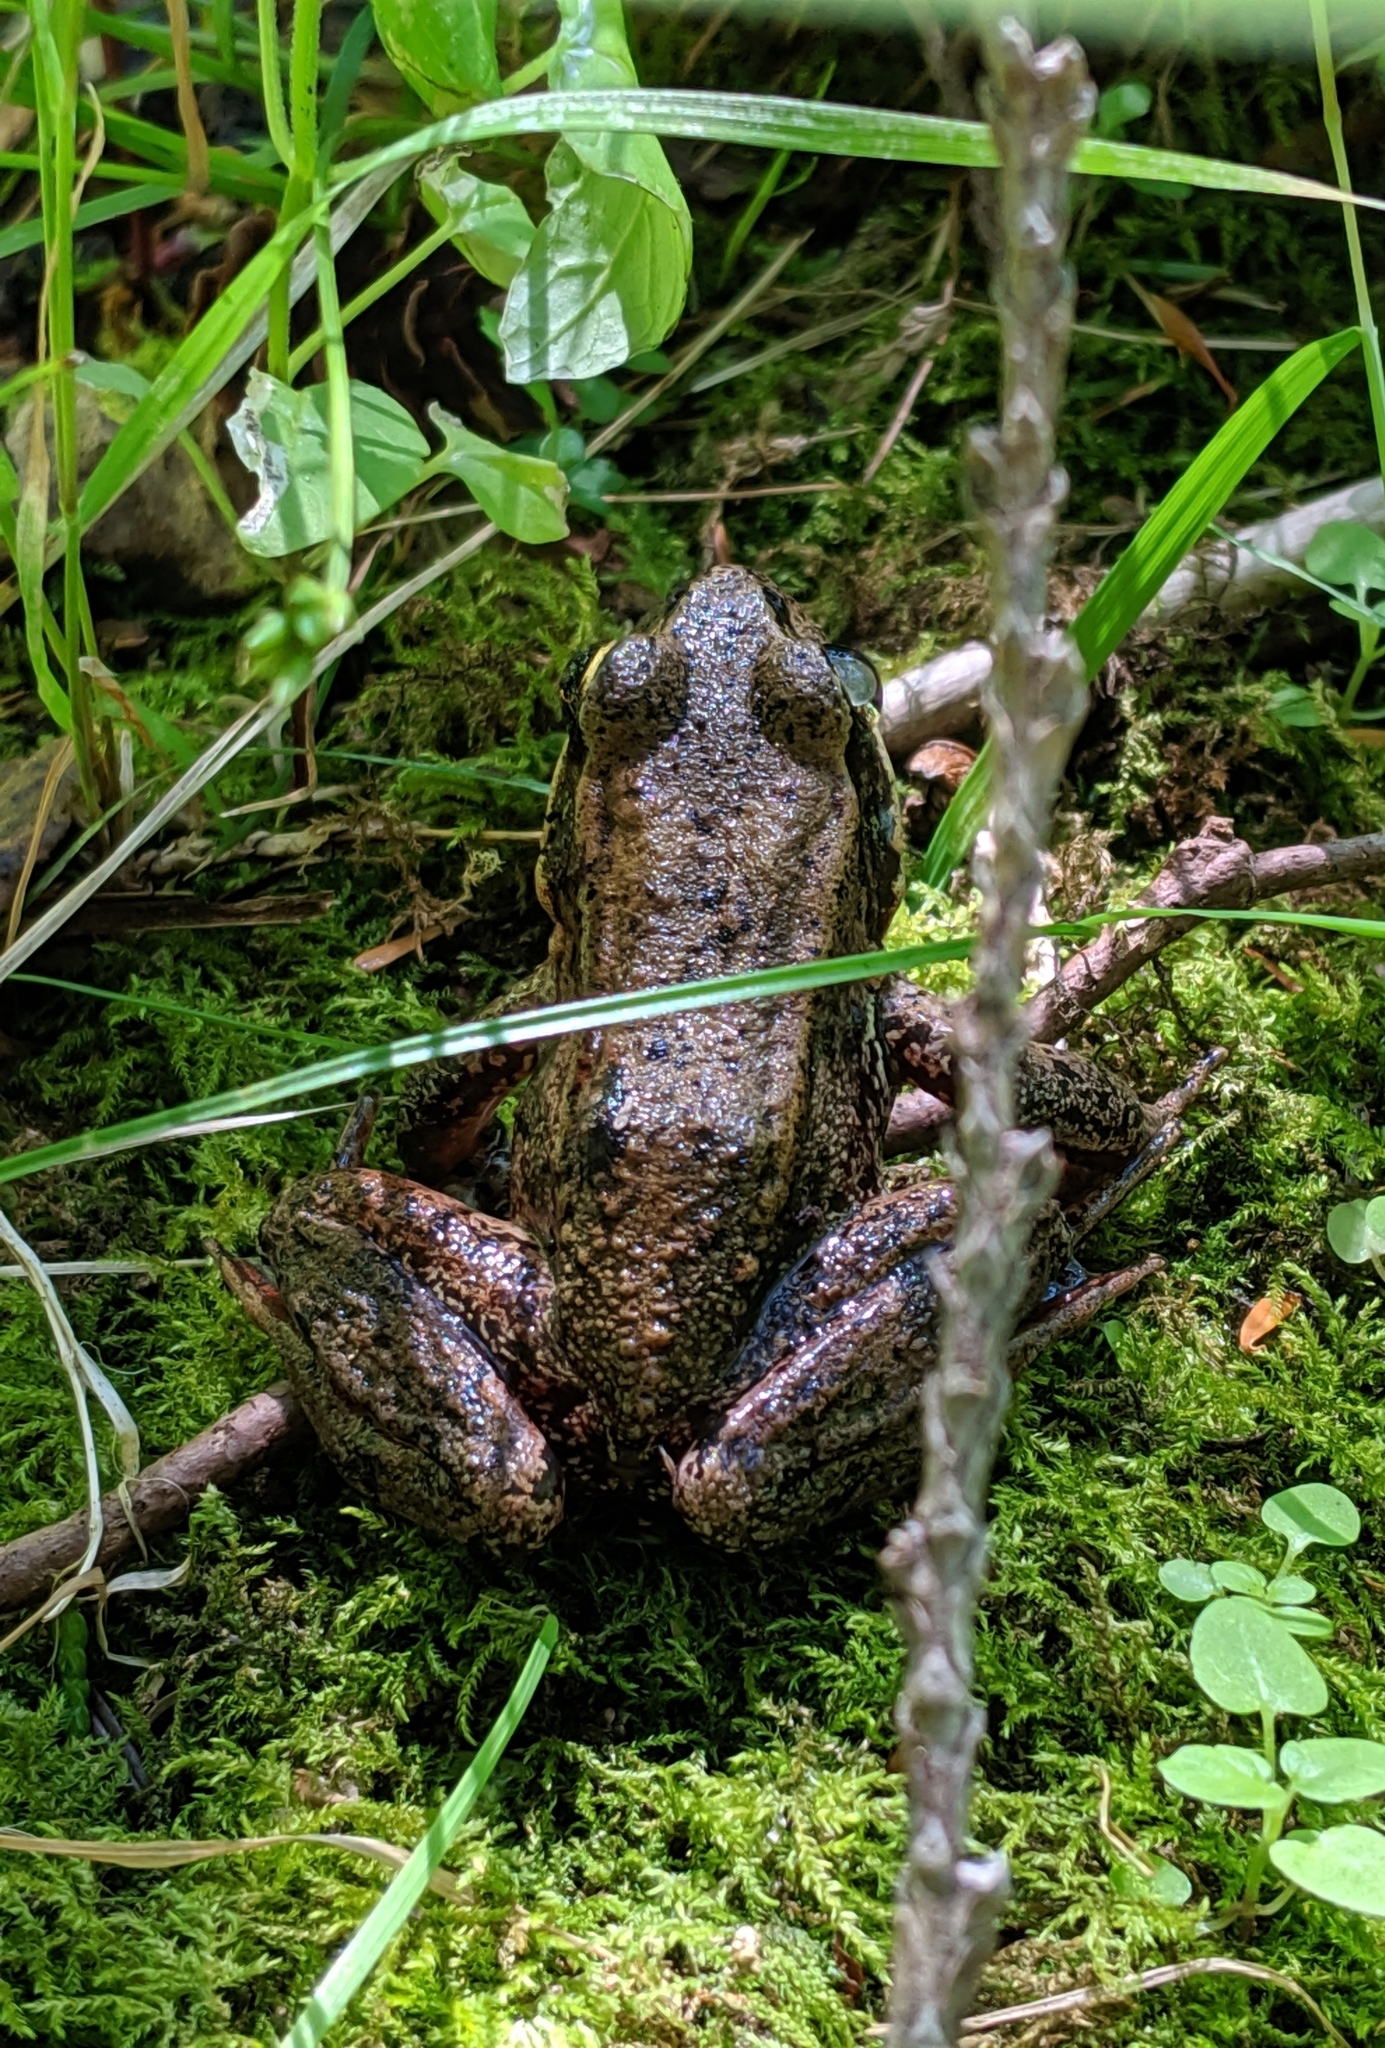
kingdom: Animalia
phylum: Chordata
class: Amphibia
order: Anura
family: Ranidae
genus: Rana
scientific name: Rana aurora
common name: Red-legged frog
